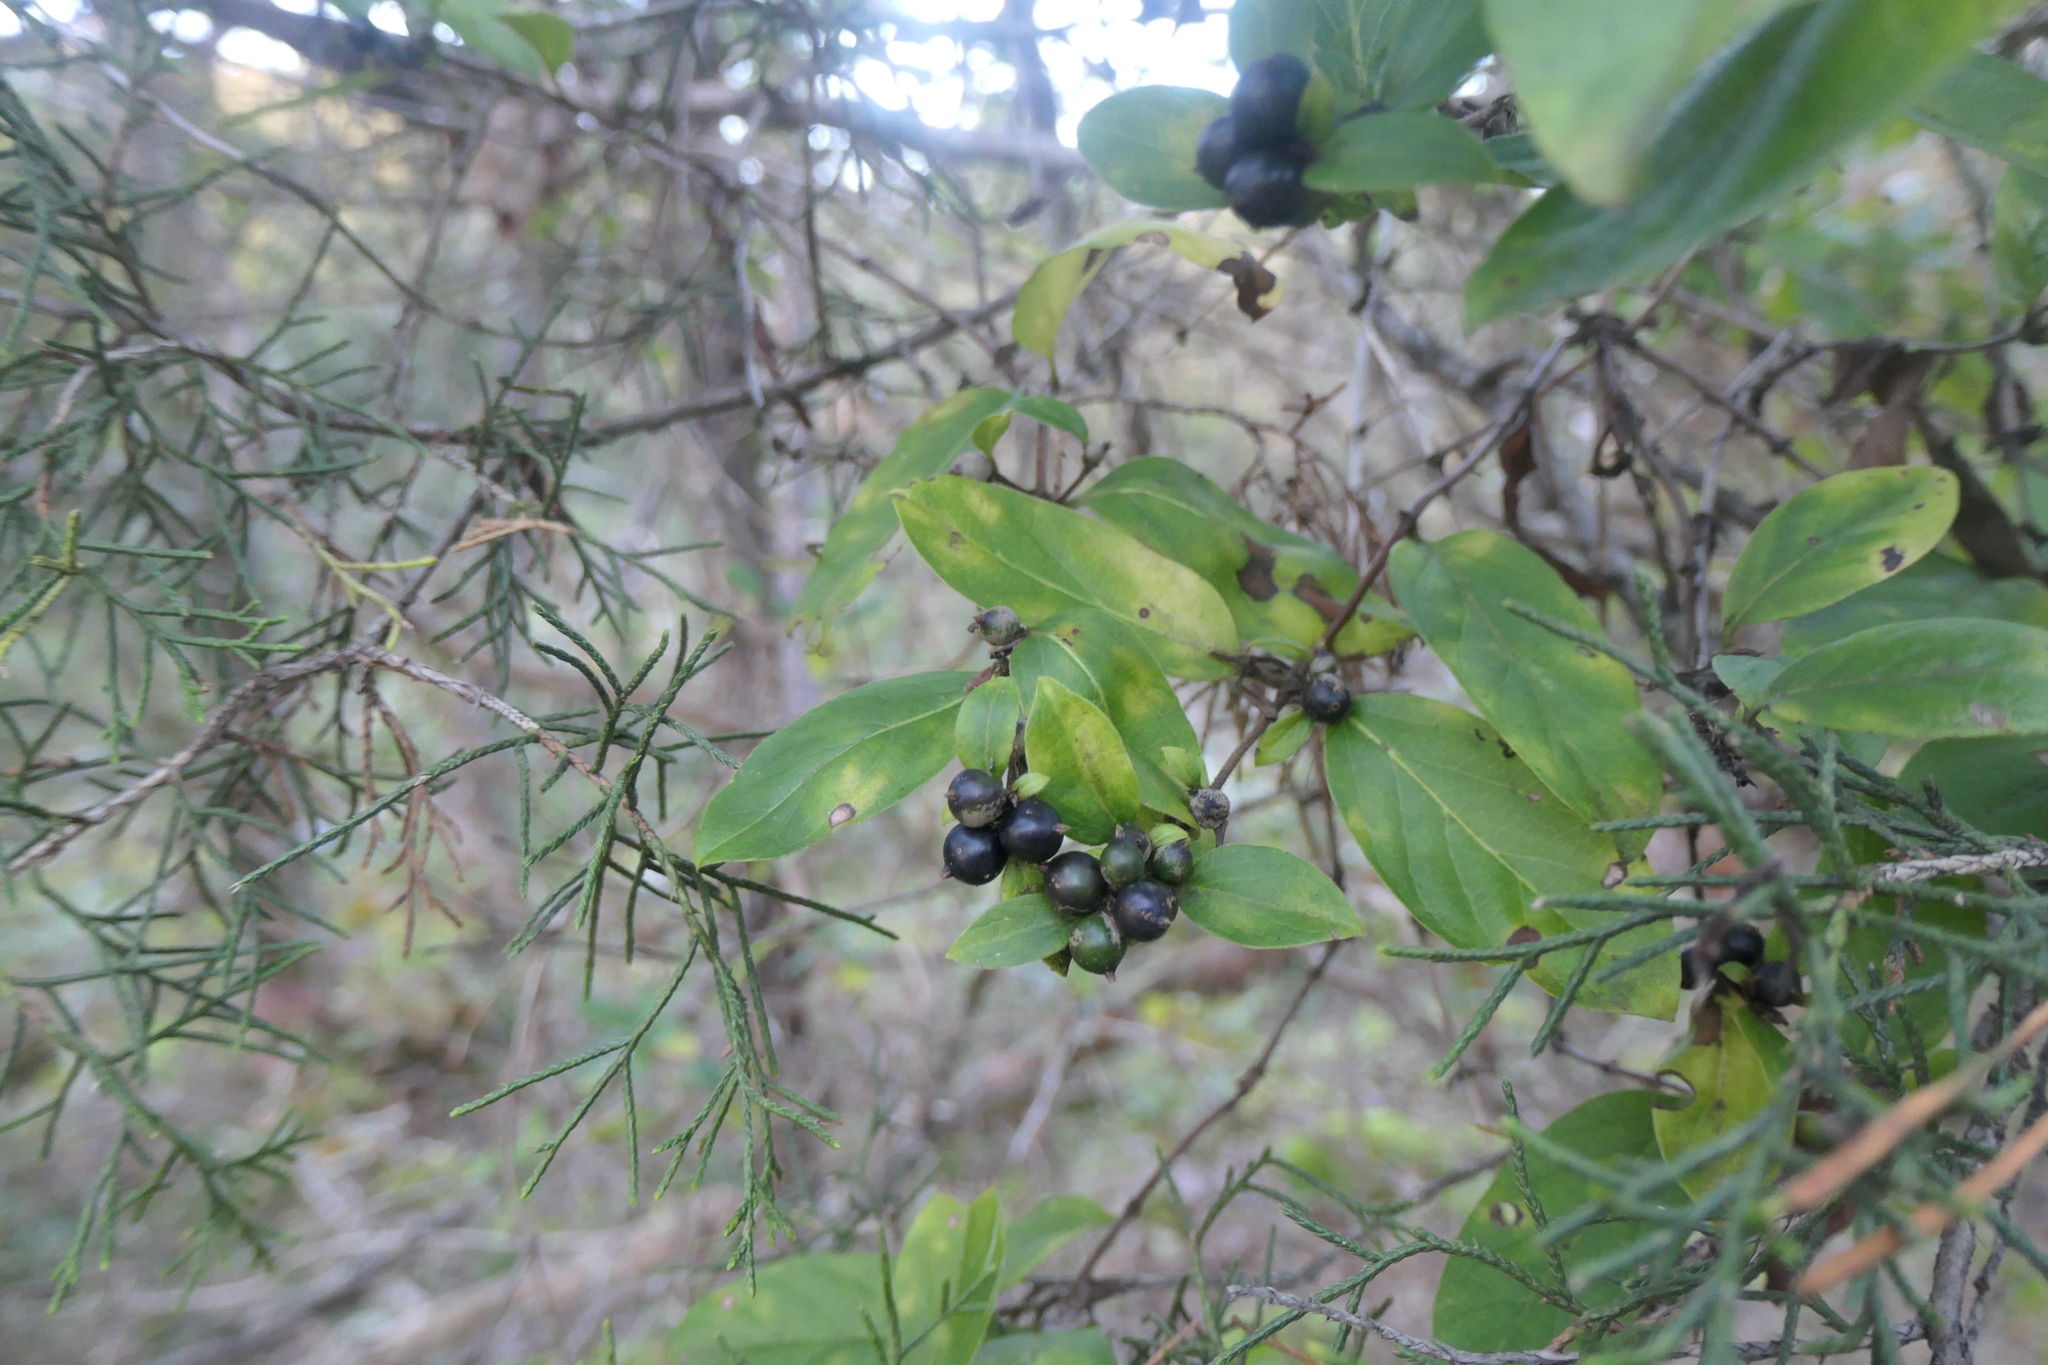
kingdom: Plantae
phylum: Tracheophyta
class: Magnoliopsida
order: Dipsacales
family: Caprifoliaceae
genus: Lonicera
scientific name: Lonicera japonica
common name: Japanese honeysuckle
